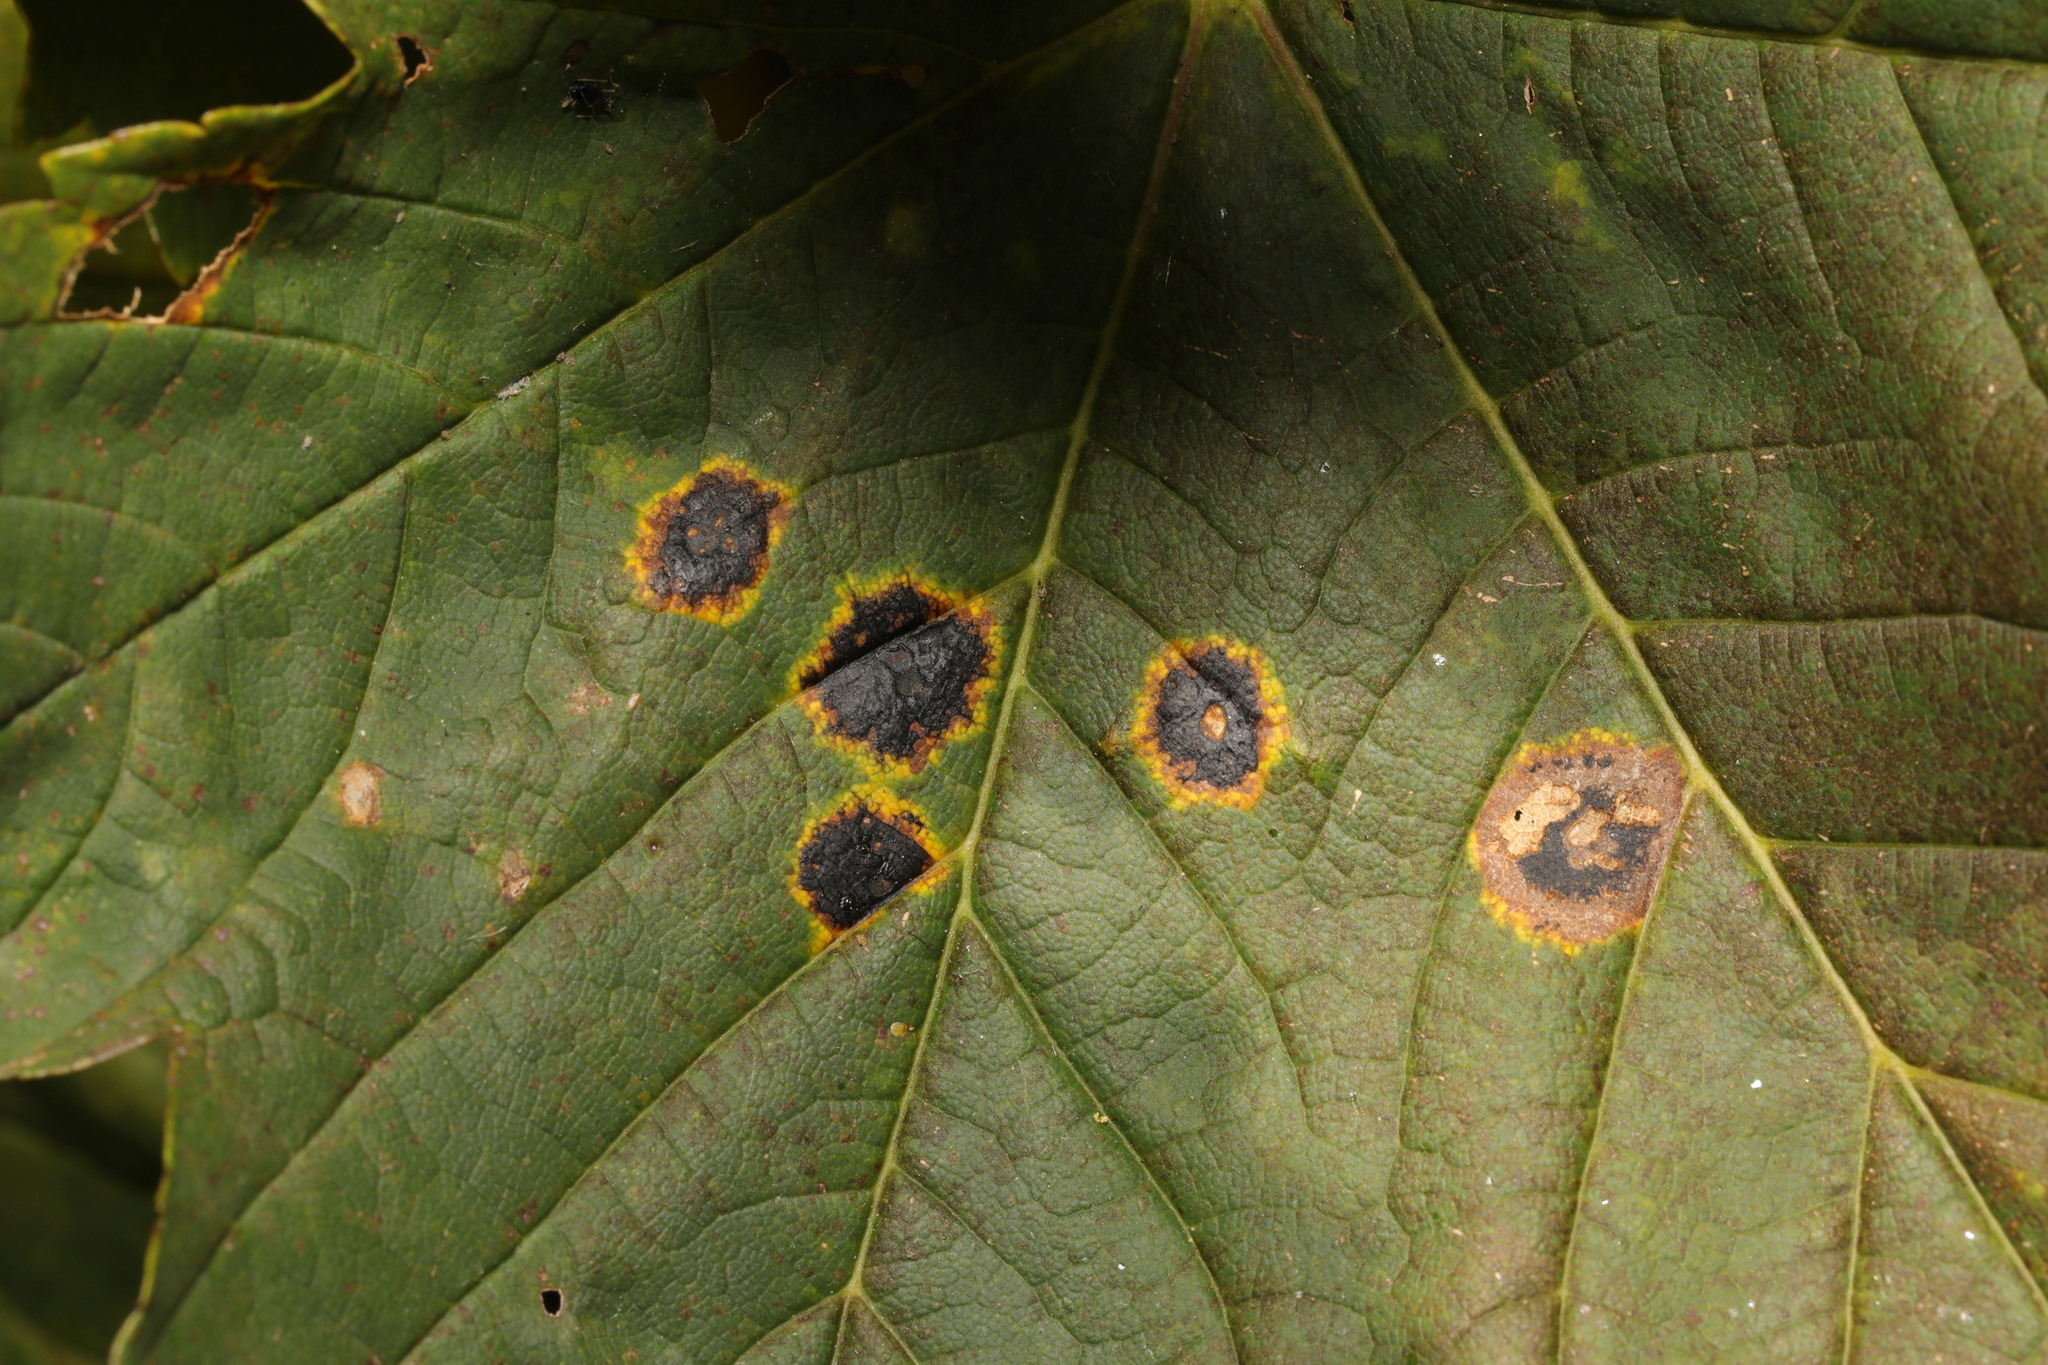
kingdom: Fungi
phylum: Ascomycota
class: Leotiomycetes
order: Rhytismatales
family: Rhytismataceae
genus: Rhytisma
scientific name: Rhytisma acerinum
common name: European tar spot
